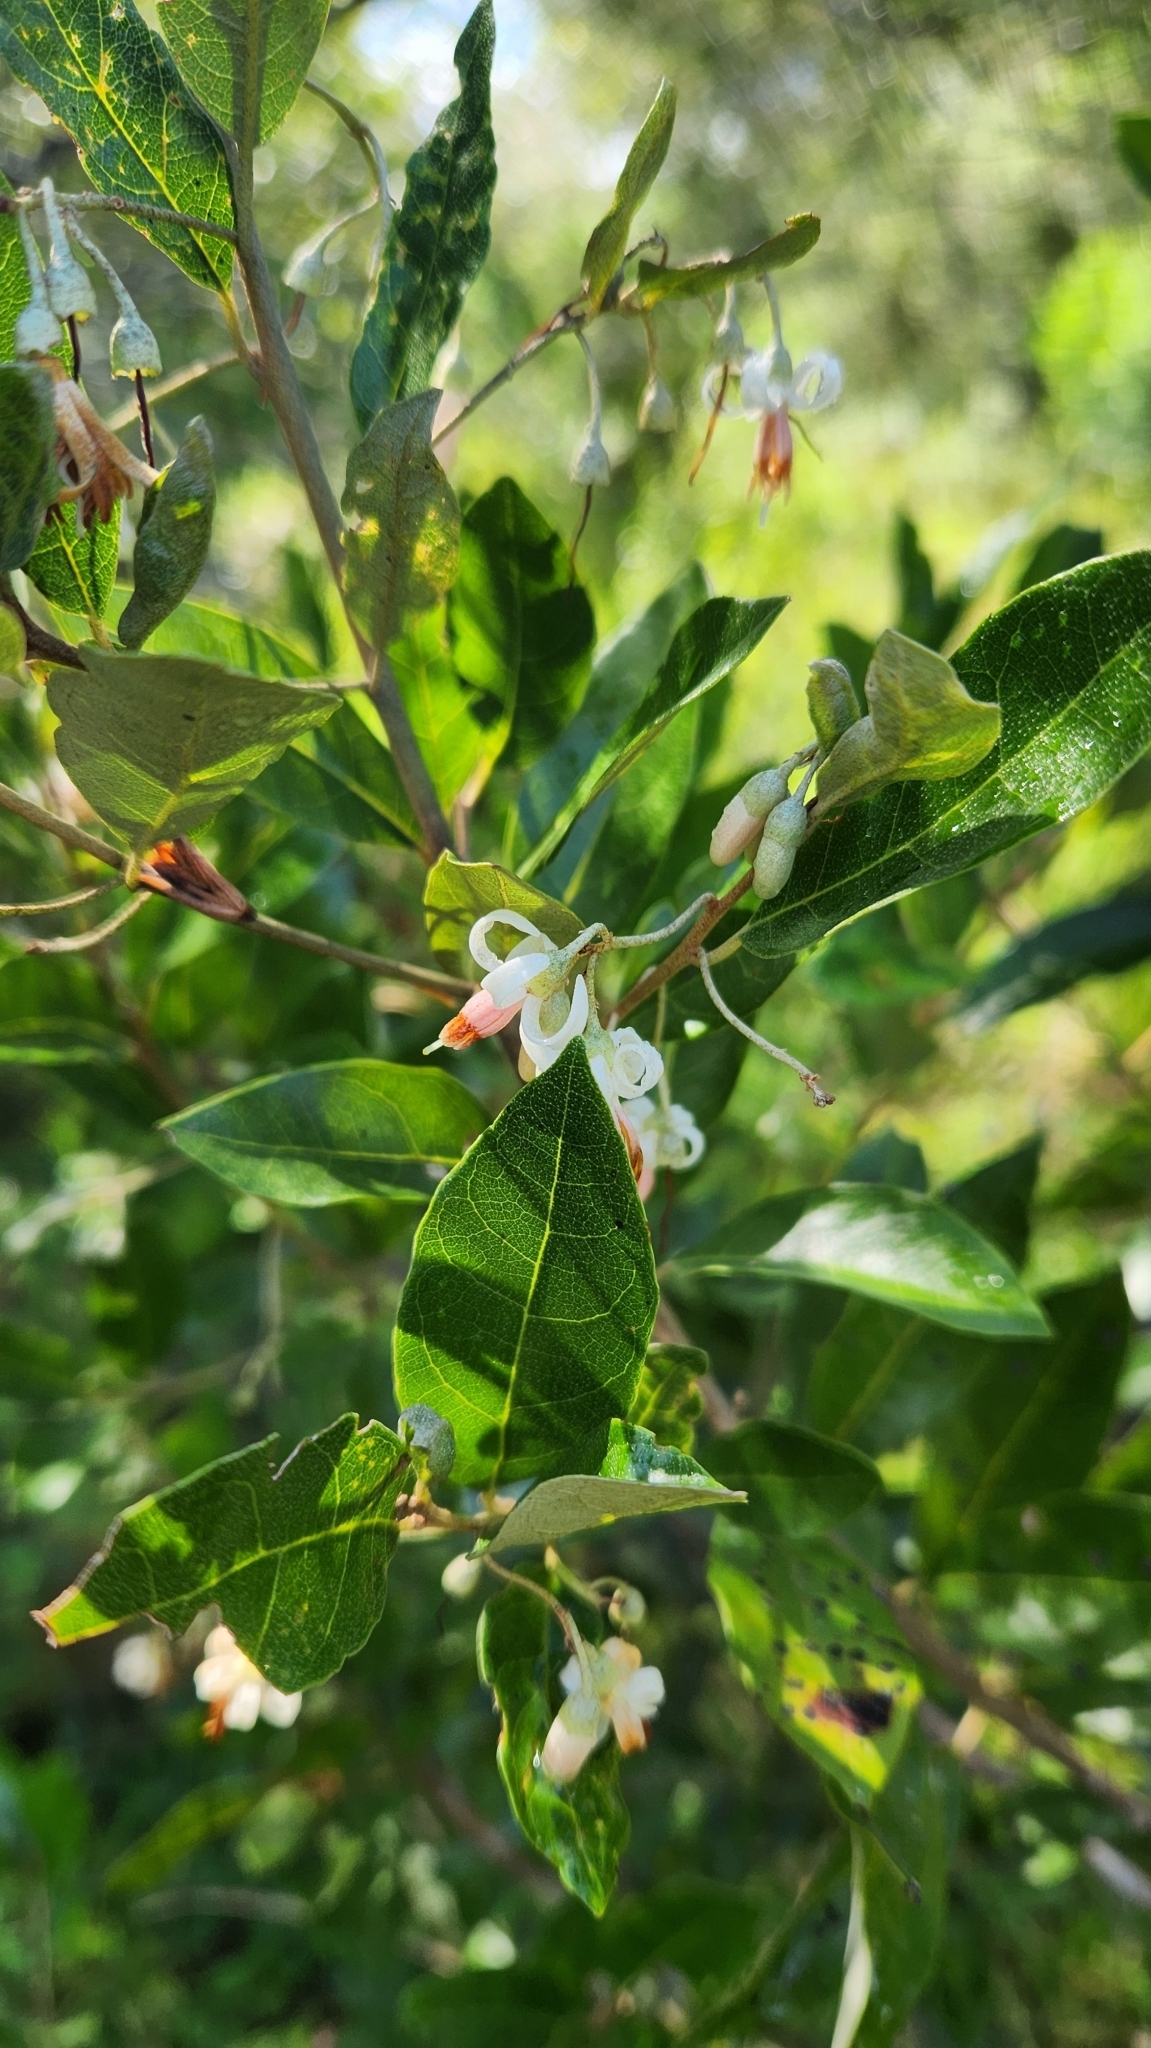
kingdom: Plantae
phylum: Tracheophyta
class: Magnoliopsida
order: Ericales
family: Styracaceae
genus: Styrax
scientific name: Styrax leprosus
